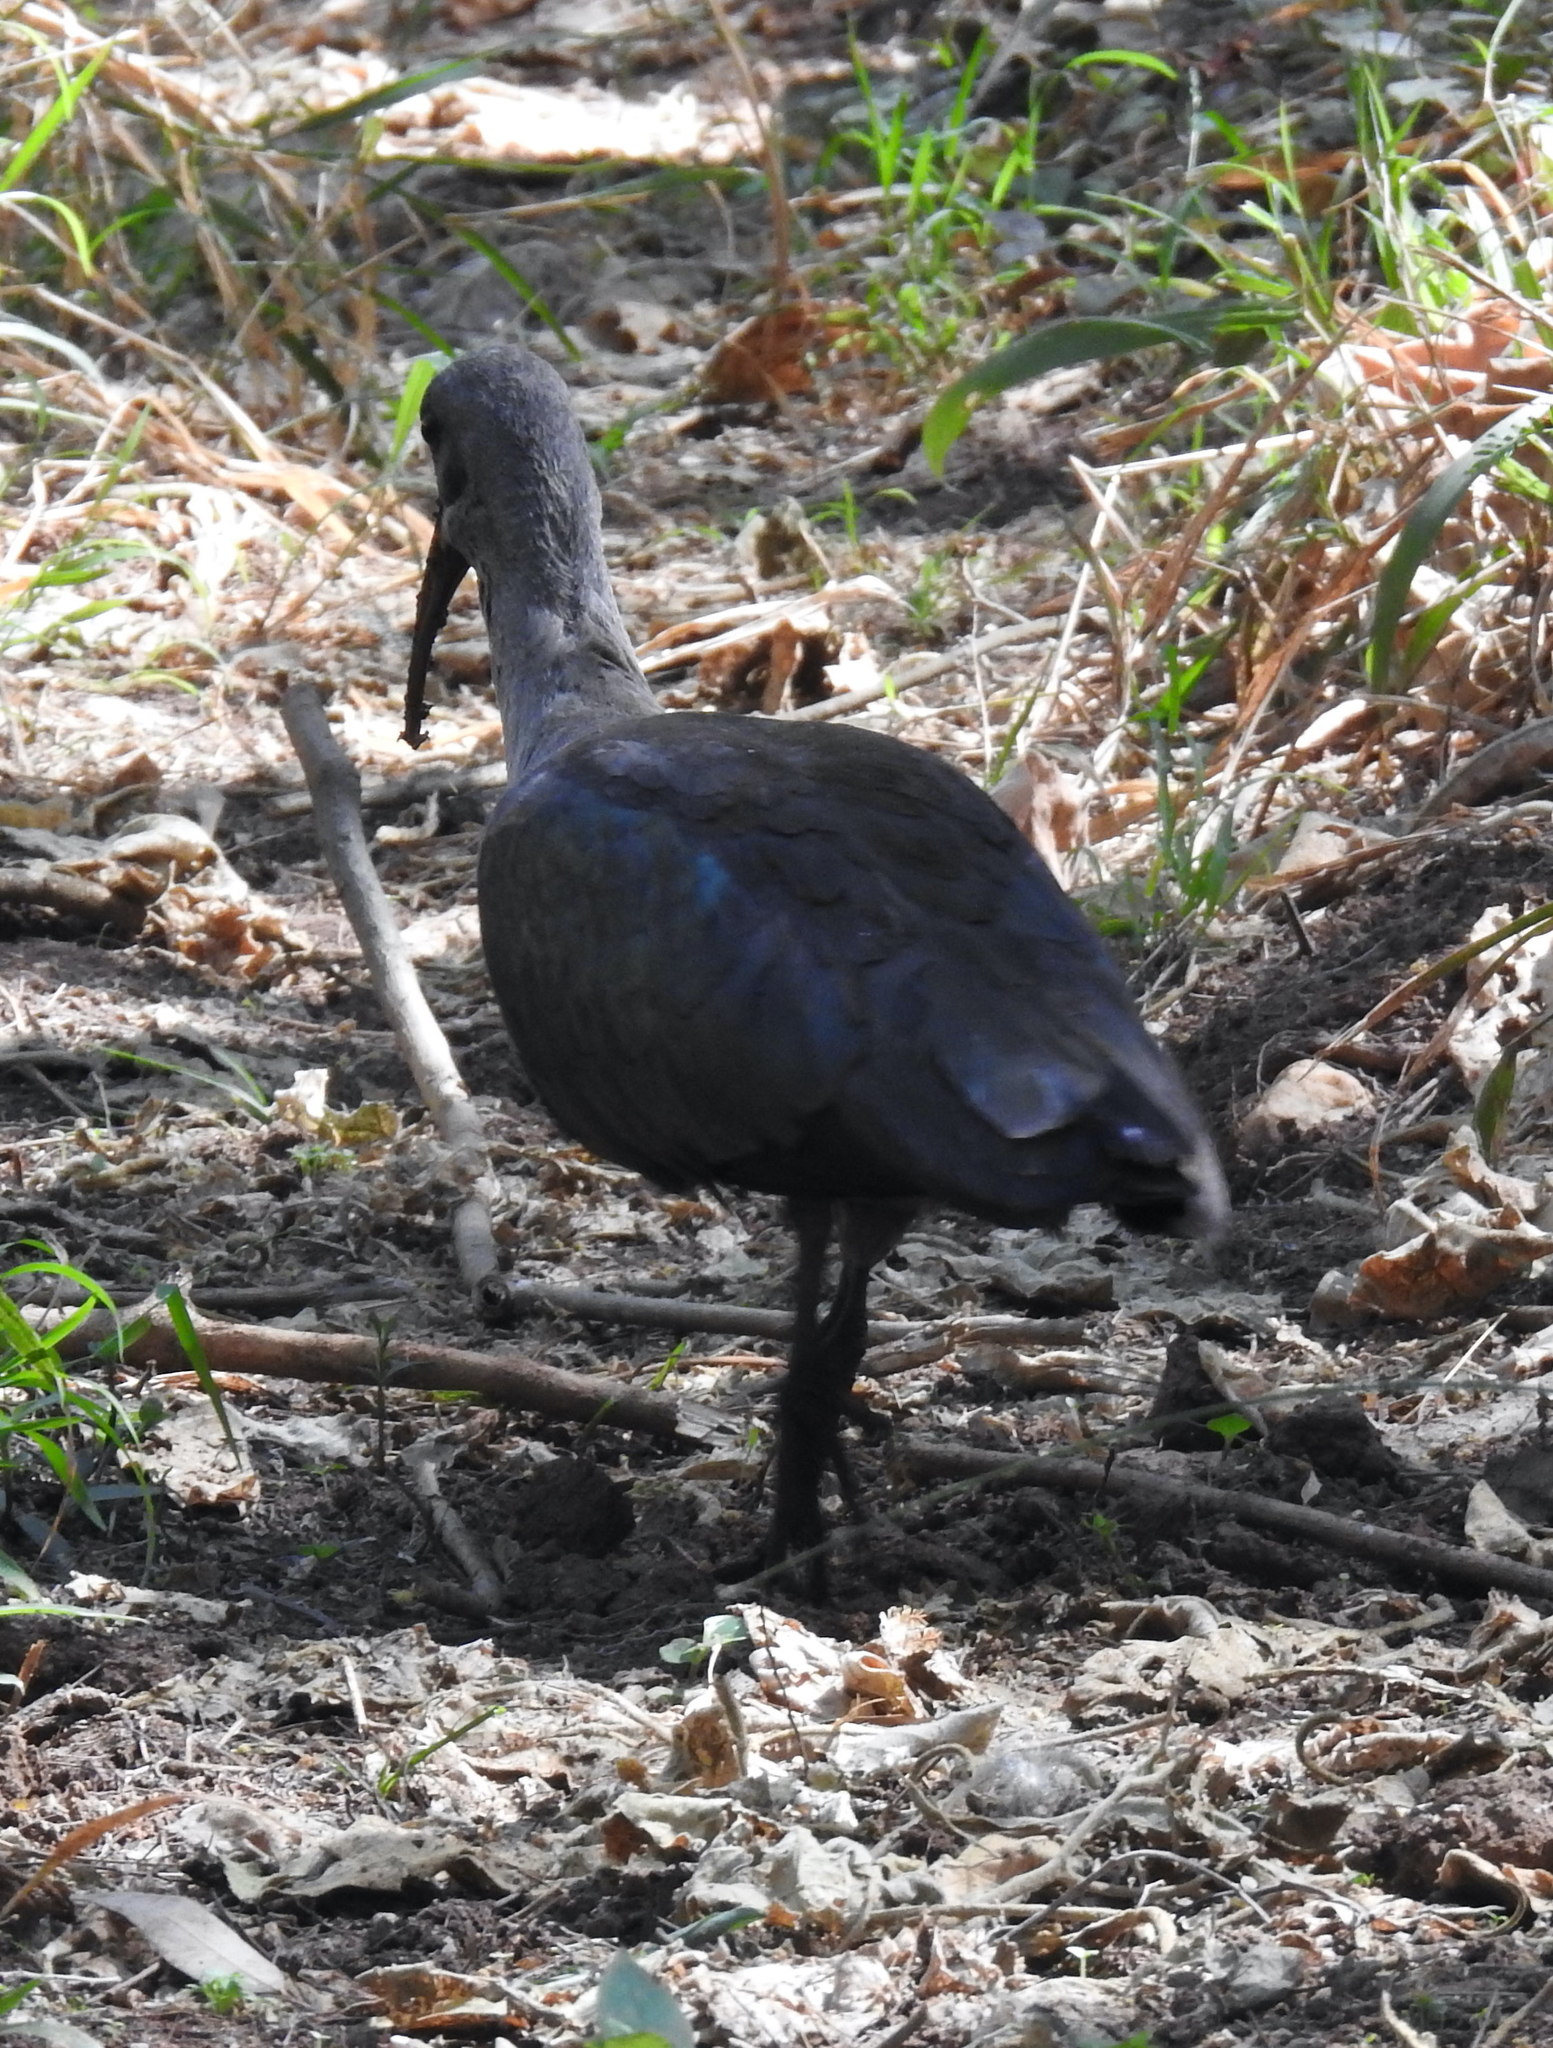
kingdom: Animalia
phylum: Chordata
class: Aves
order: Pelecaniformes
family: Threskiornithidae
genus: Bostrychia
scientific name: Bostrychia hagedash
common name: Hadada ibis
